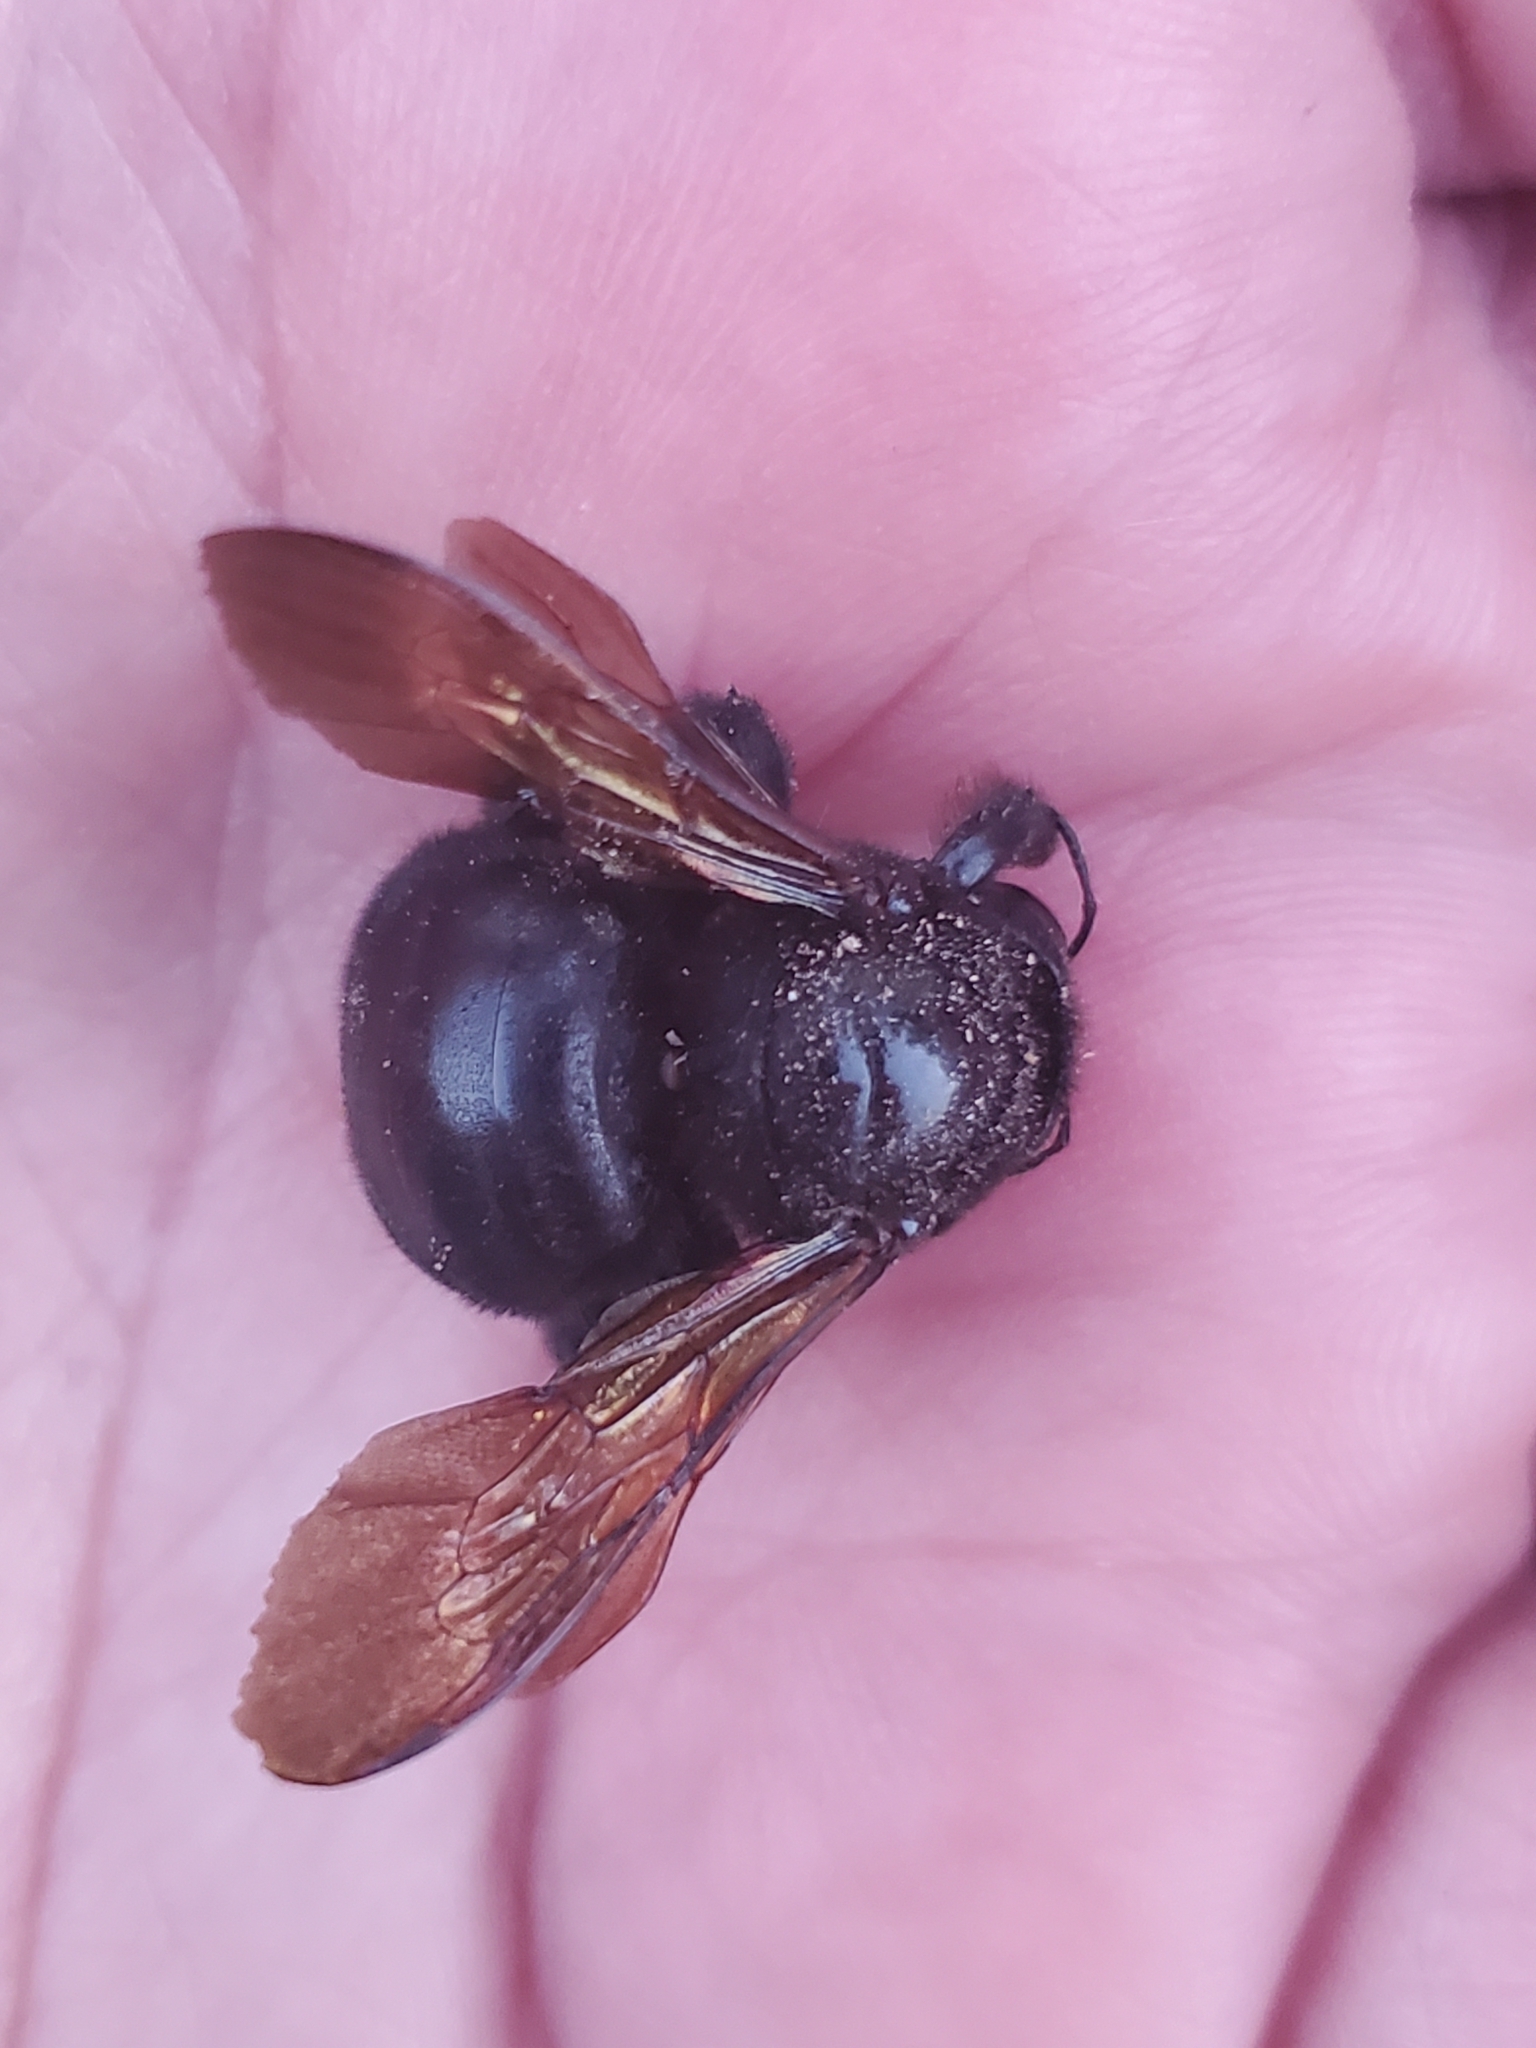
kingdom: Animalia
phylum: Arthropoda
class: Insecta
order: Hymenoptera
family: Apidae
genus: Xylocopa
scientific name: Xylocopa sonorina
